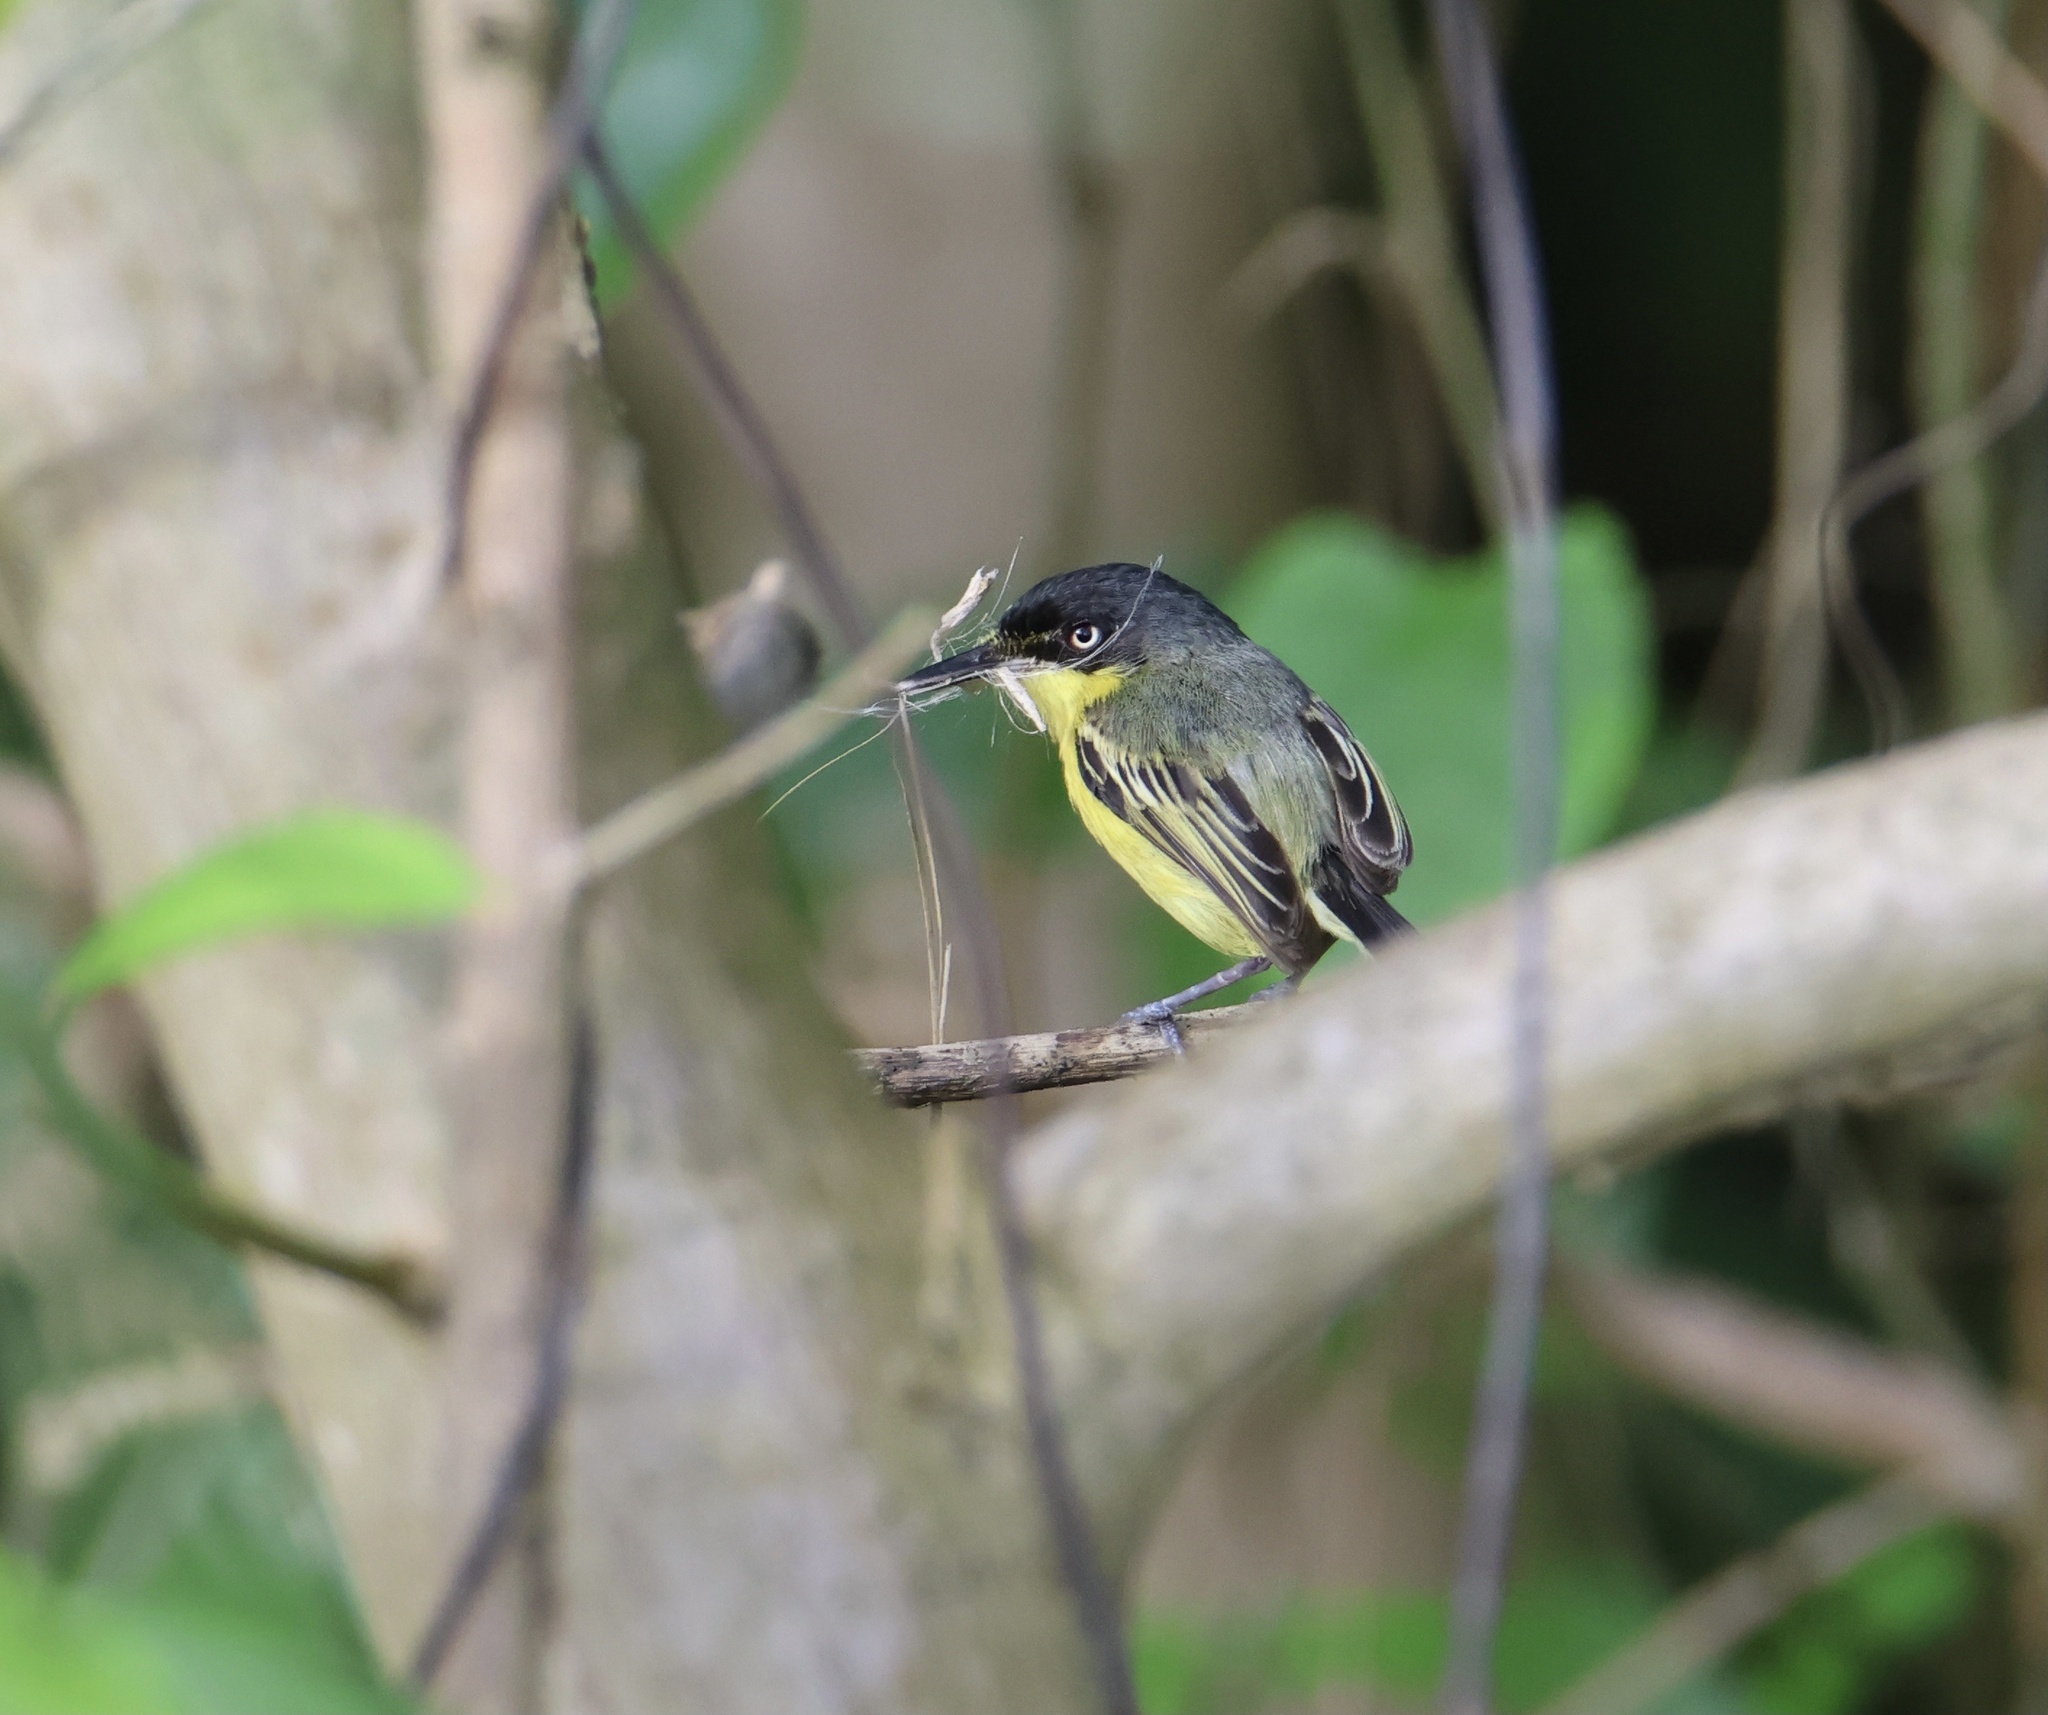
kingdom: Animalia
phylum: Chordata
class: Aves
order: Passeriformes
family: Tyrannidae
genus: Todirostrum
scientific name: Todirostrum cinereum
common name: Common tody-flycatcher
